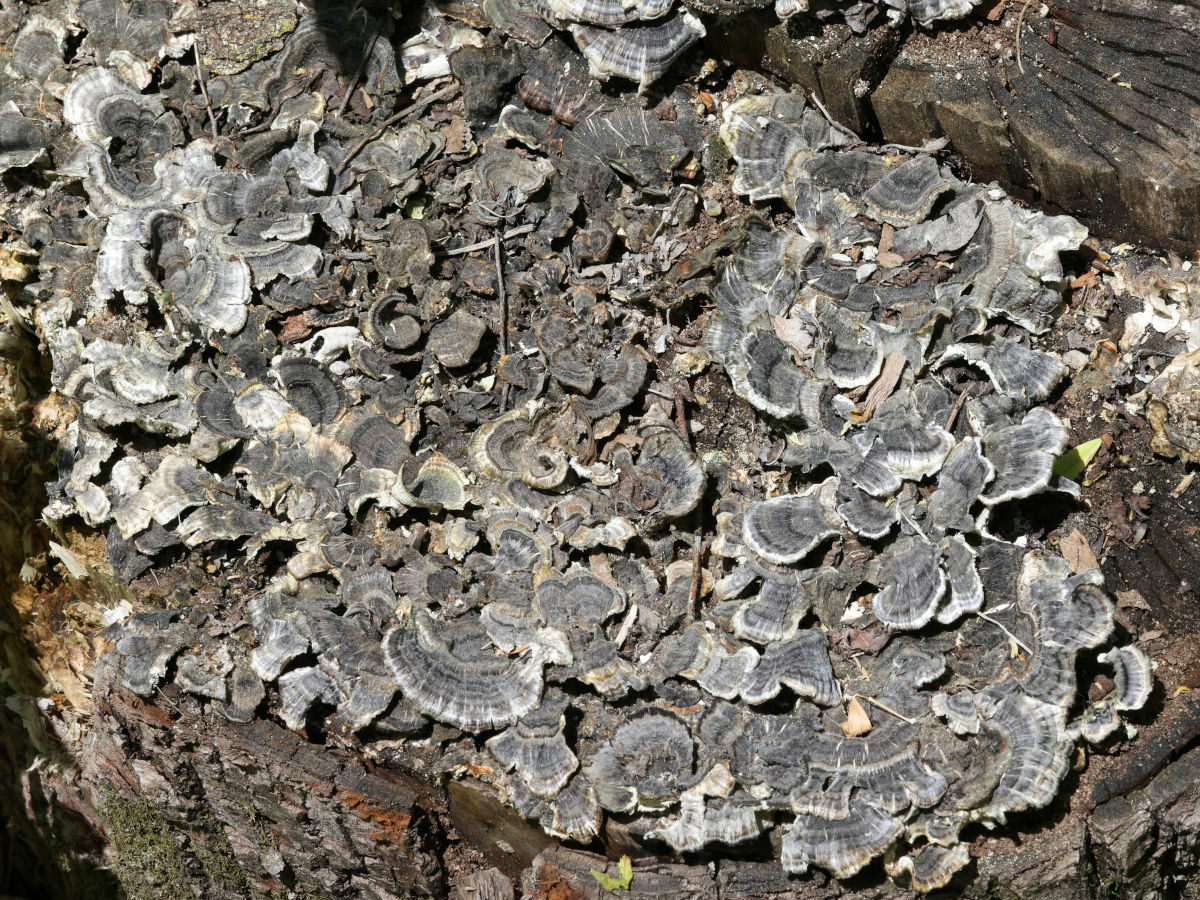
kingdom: Fungi
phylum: Basidiomycota
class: Agaricomycetes
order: Polyporales
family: Polyporaceae
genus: Trametes
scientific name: Trametes versicolor
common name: Turkeytail
